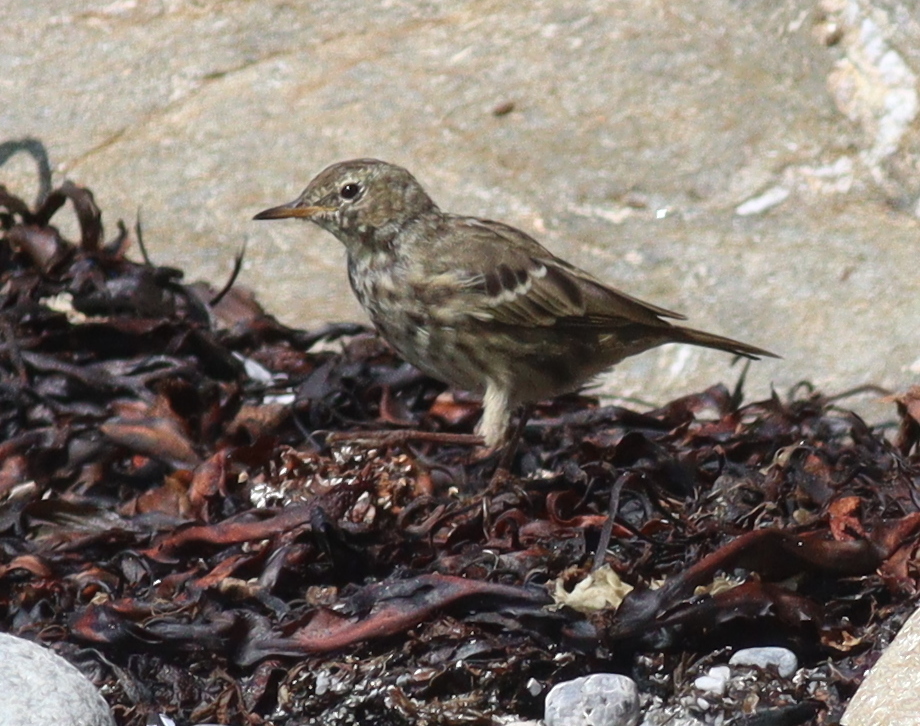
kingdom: Animalia
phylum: Chordata
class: Aves
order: Passeriformes
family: Motacillidae
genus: Anthus
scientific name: Anthus petrosus
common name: Eurasian rock pipit
